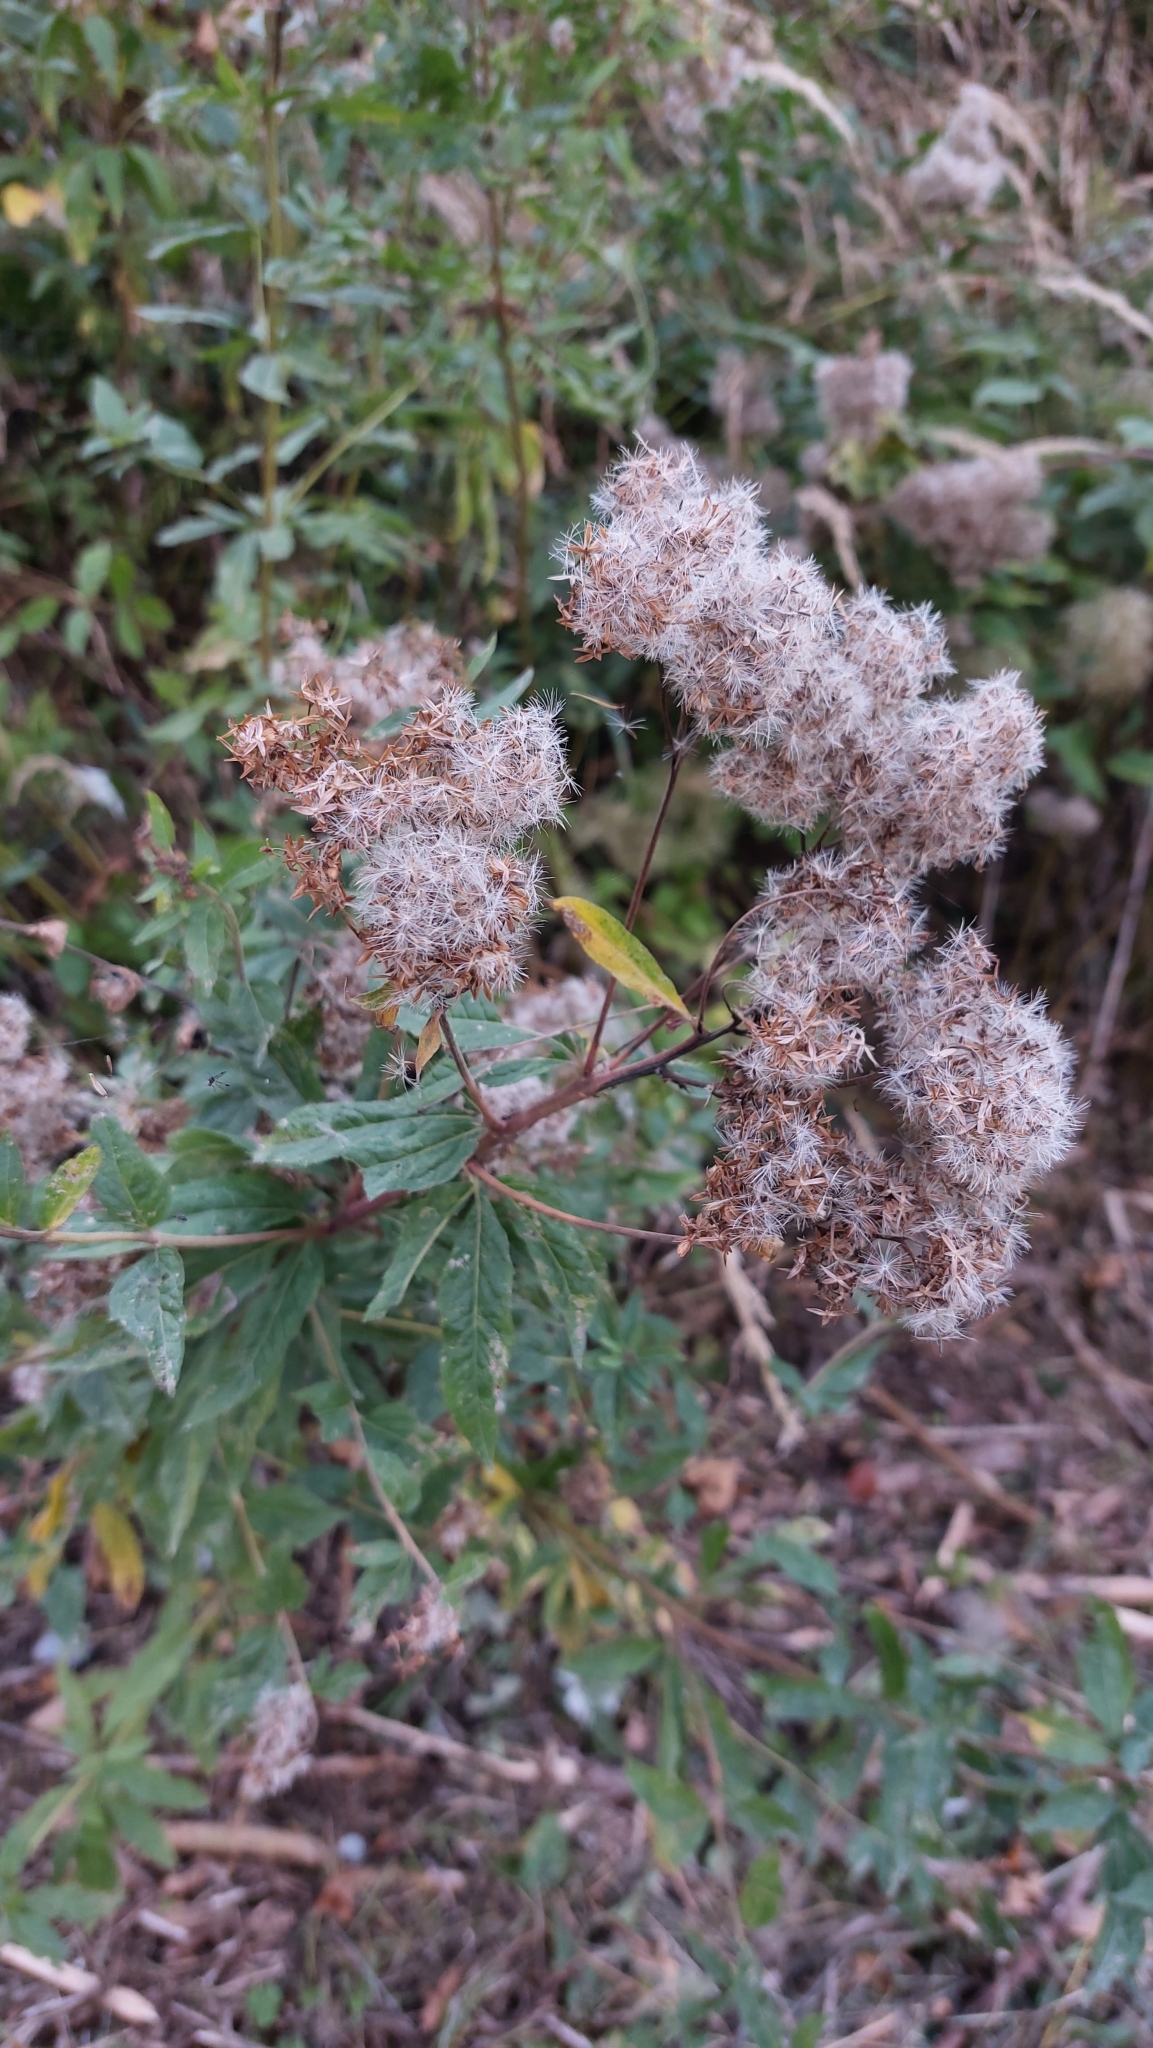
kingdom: Plantae
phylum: Tracheophyta
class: Magnoliopsida
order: Asterales
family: Asteraceae
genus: Eupatorium
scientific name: Eupatorium cannabinum
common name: Hemp-agrimony
